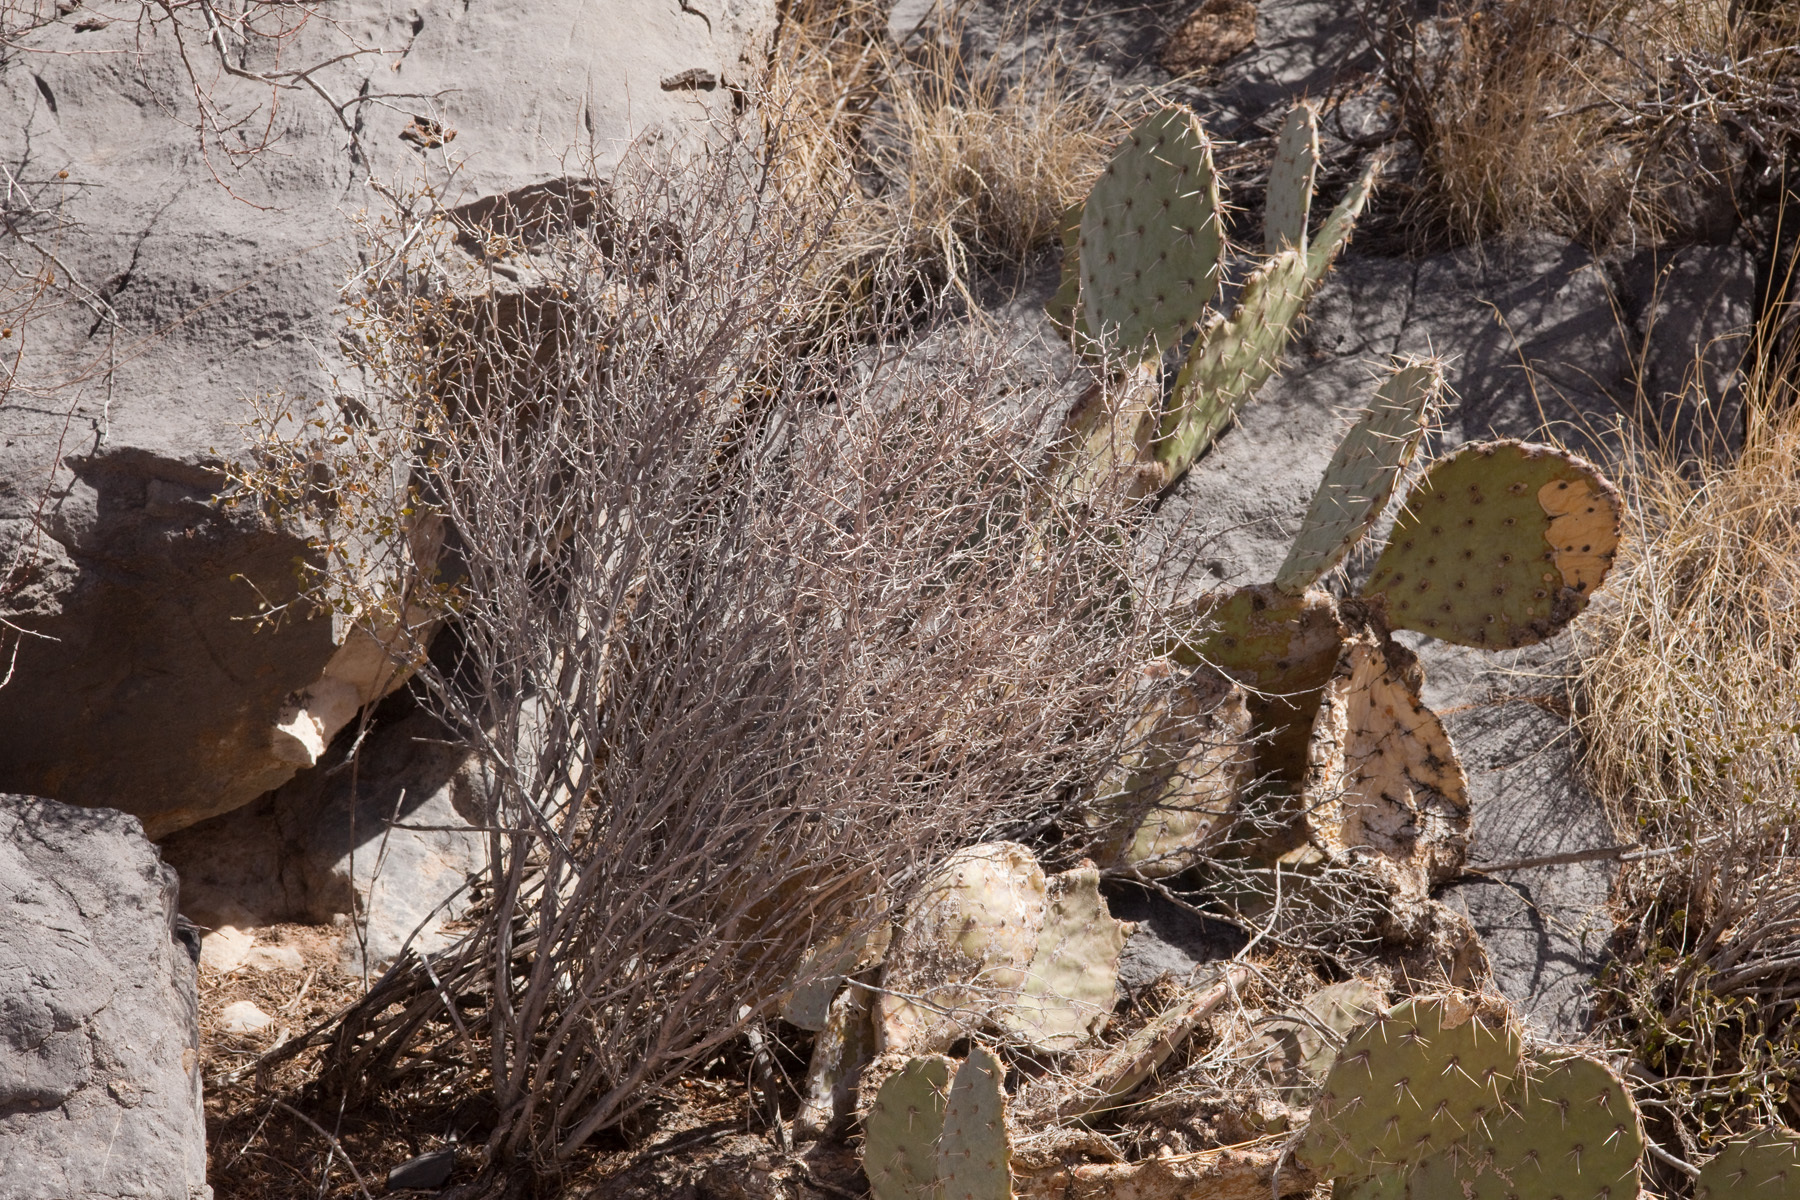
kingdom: Plantae
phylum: Tracheophyta
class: Magnoliopsida
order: Malpighiales
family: Euphorbiaceae
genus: Bernardia
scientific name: Bernardia obovata
